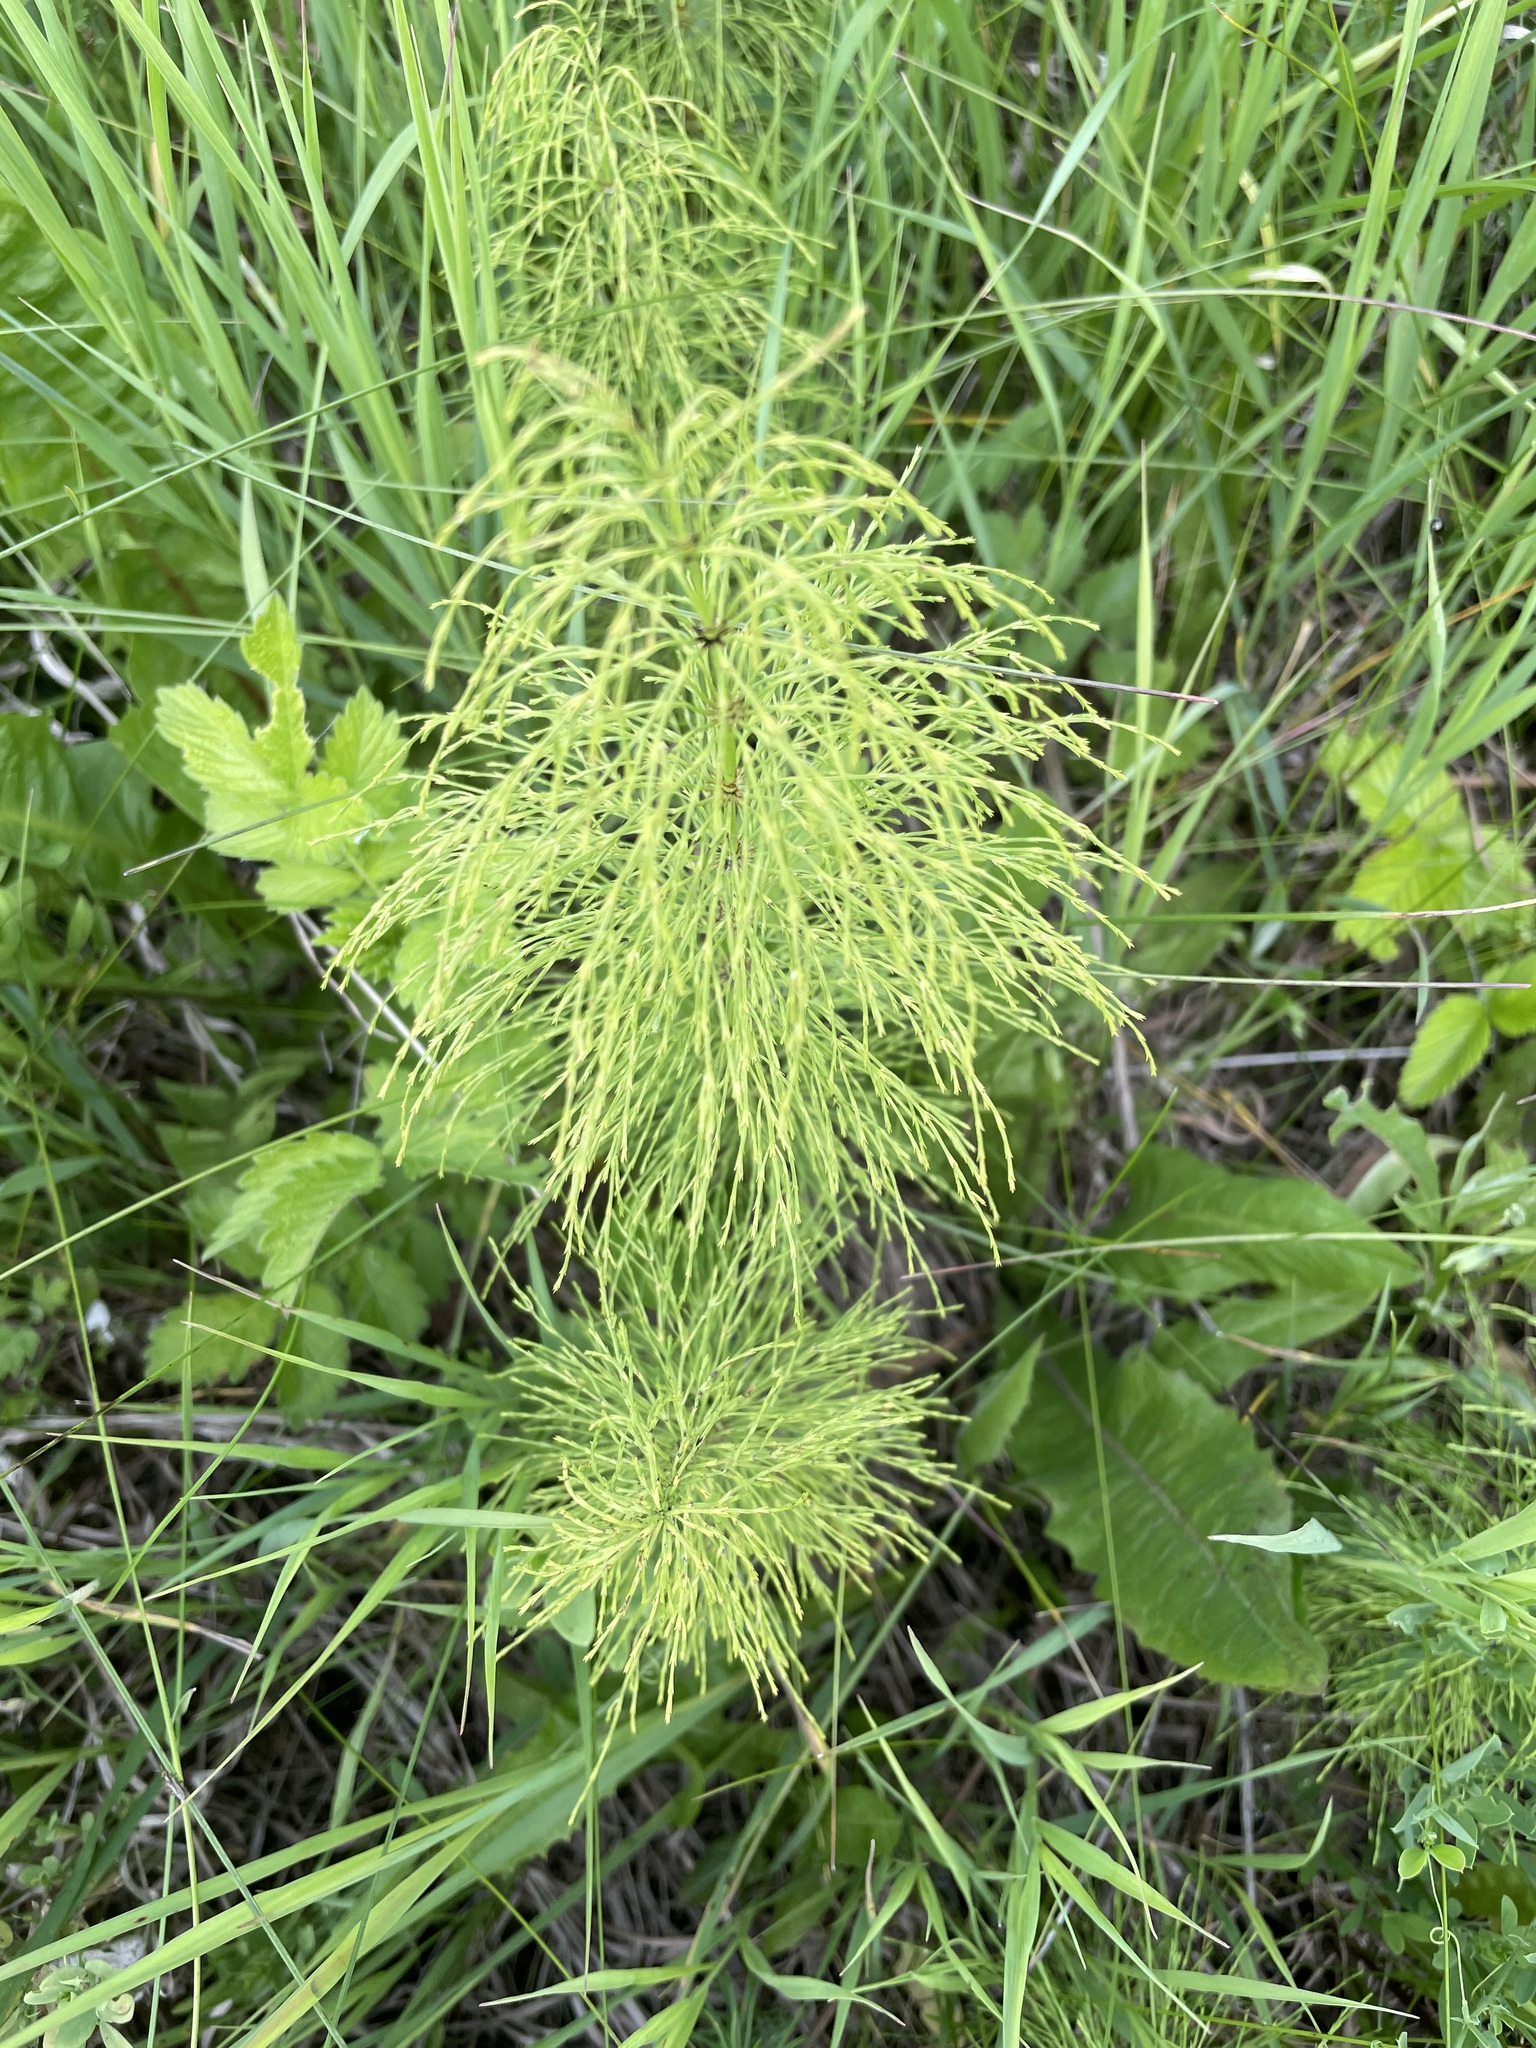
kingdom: Plantae
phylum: Tracheophyta
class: Polypodiopsida
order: Equisetales
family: Equisetaceae
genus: Equisetum
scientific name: Equisetum sylvaticum
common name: Wood horsetail
